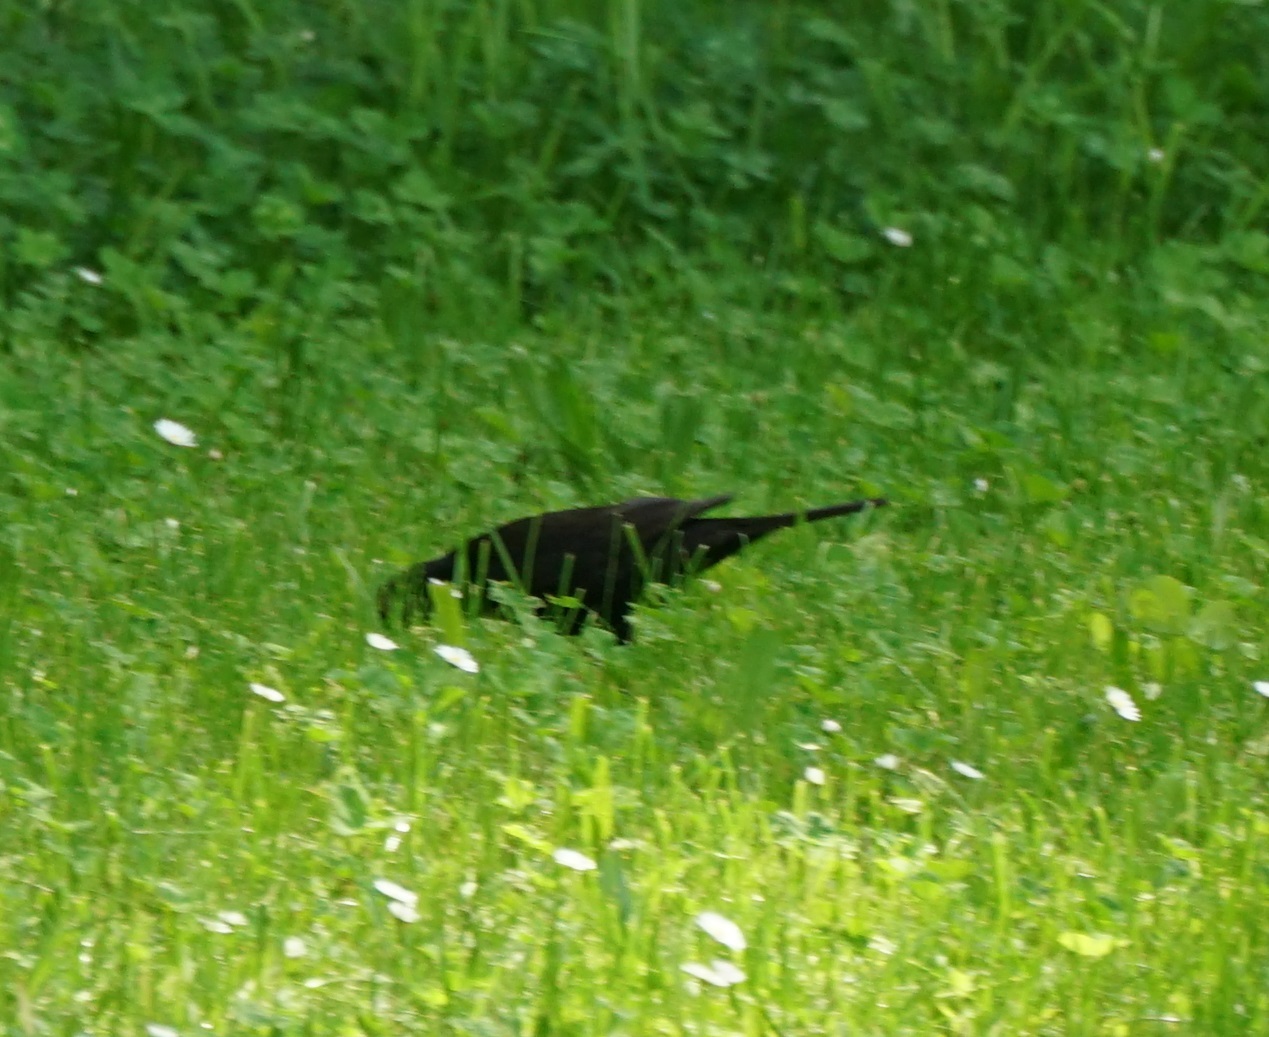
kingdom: Animalia
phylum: Chordata
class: Aves
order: Passeriformes
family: Turdidae
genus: Turdus
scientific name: Turdus merula
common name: Common blackbird
